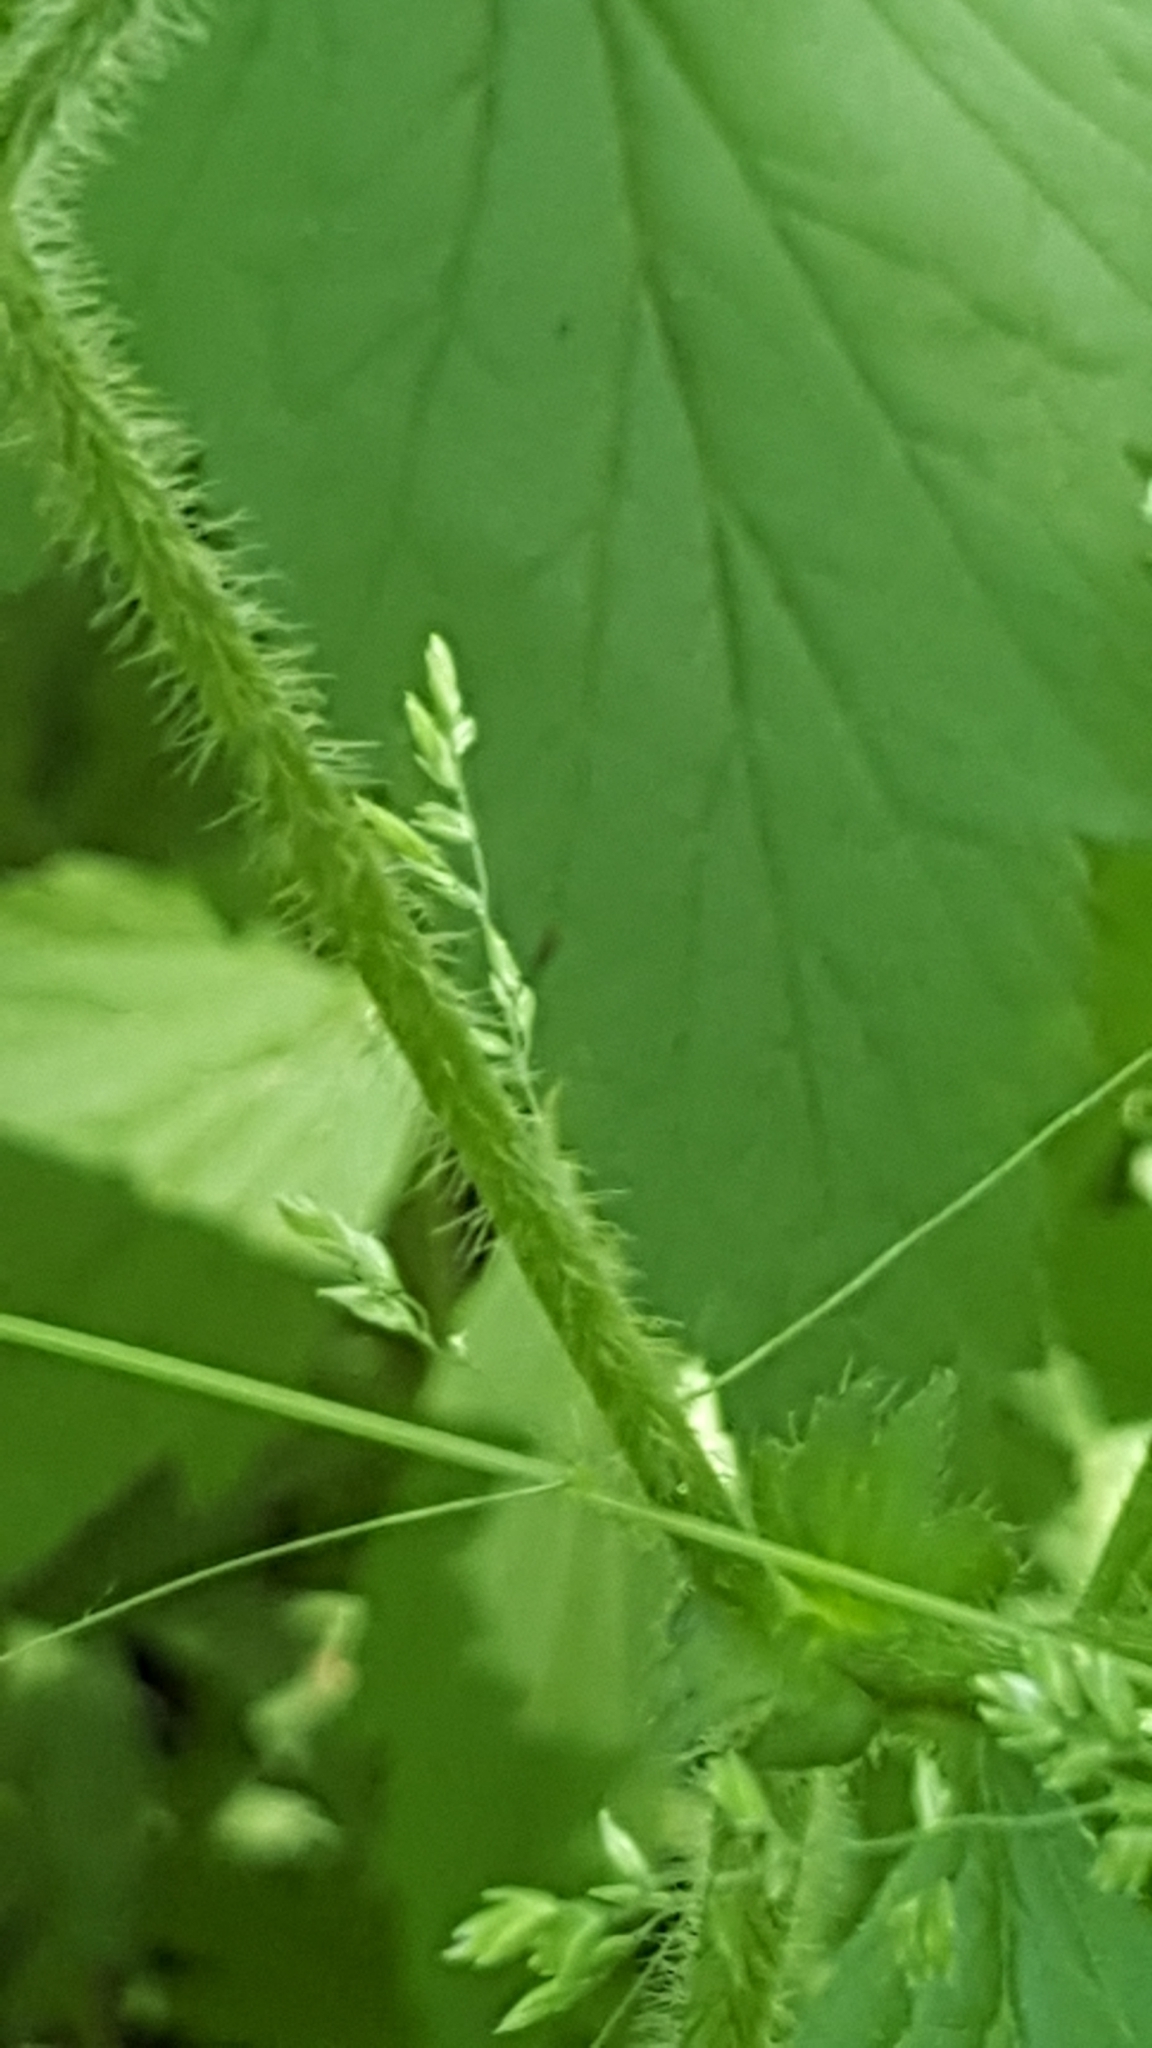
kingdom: Plantae
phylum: Tracheophyta
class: Magnoliopsida
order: Rosales
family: Rosaceae
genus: Geum
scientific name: Geum laciniatum
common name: Rough avens
